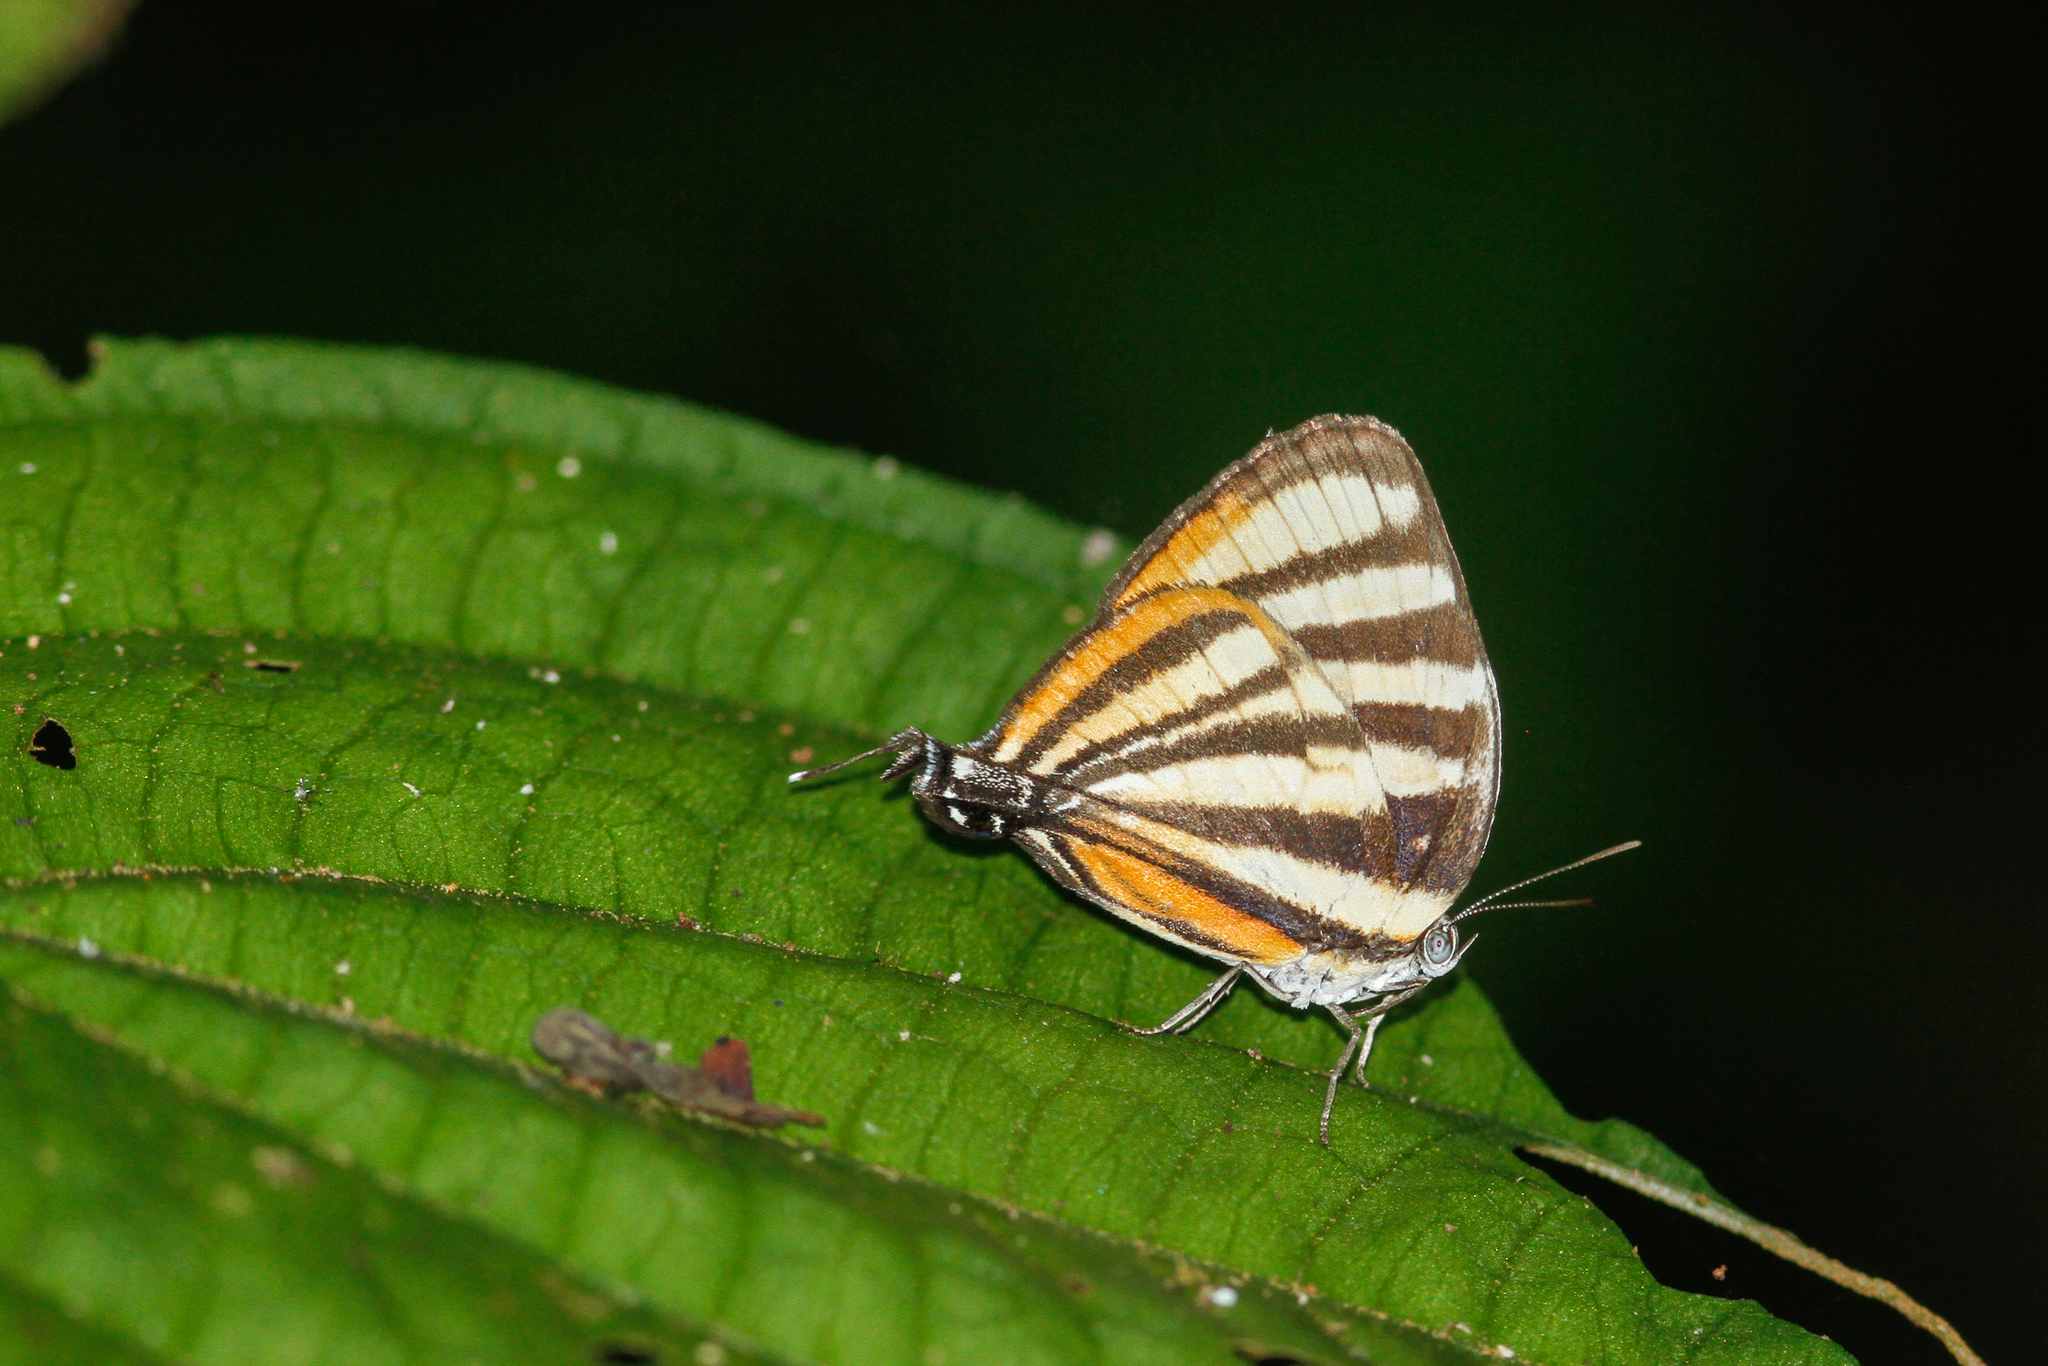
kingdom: Animalia
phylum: Arthropoda
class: Insecta
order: Lepidoptera
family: Lycaenidae
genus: Thecla
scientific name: Thecla aetolus
